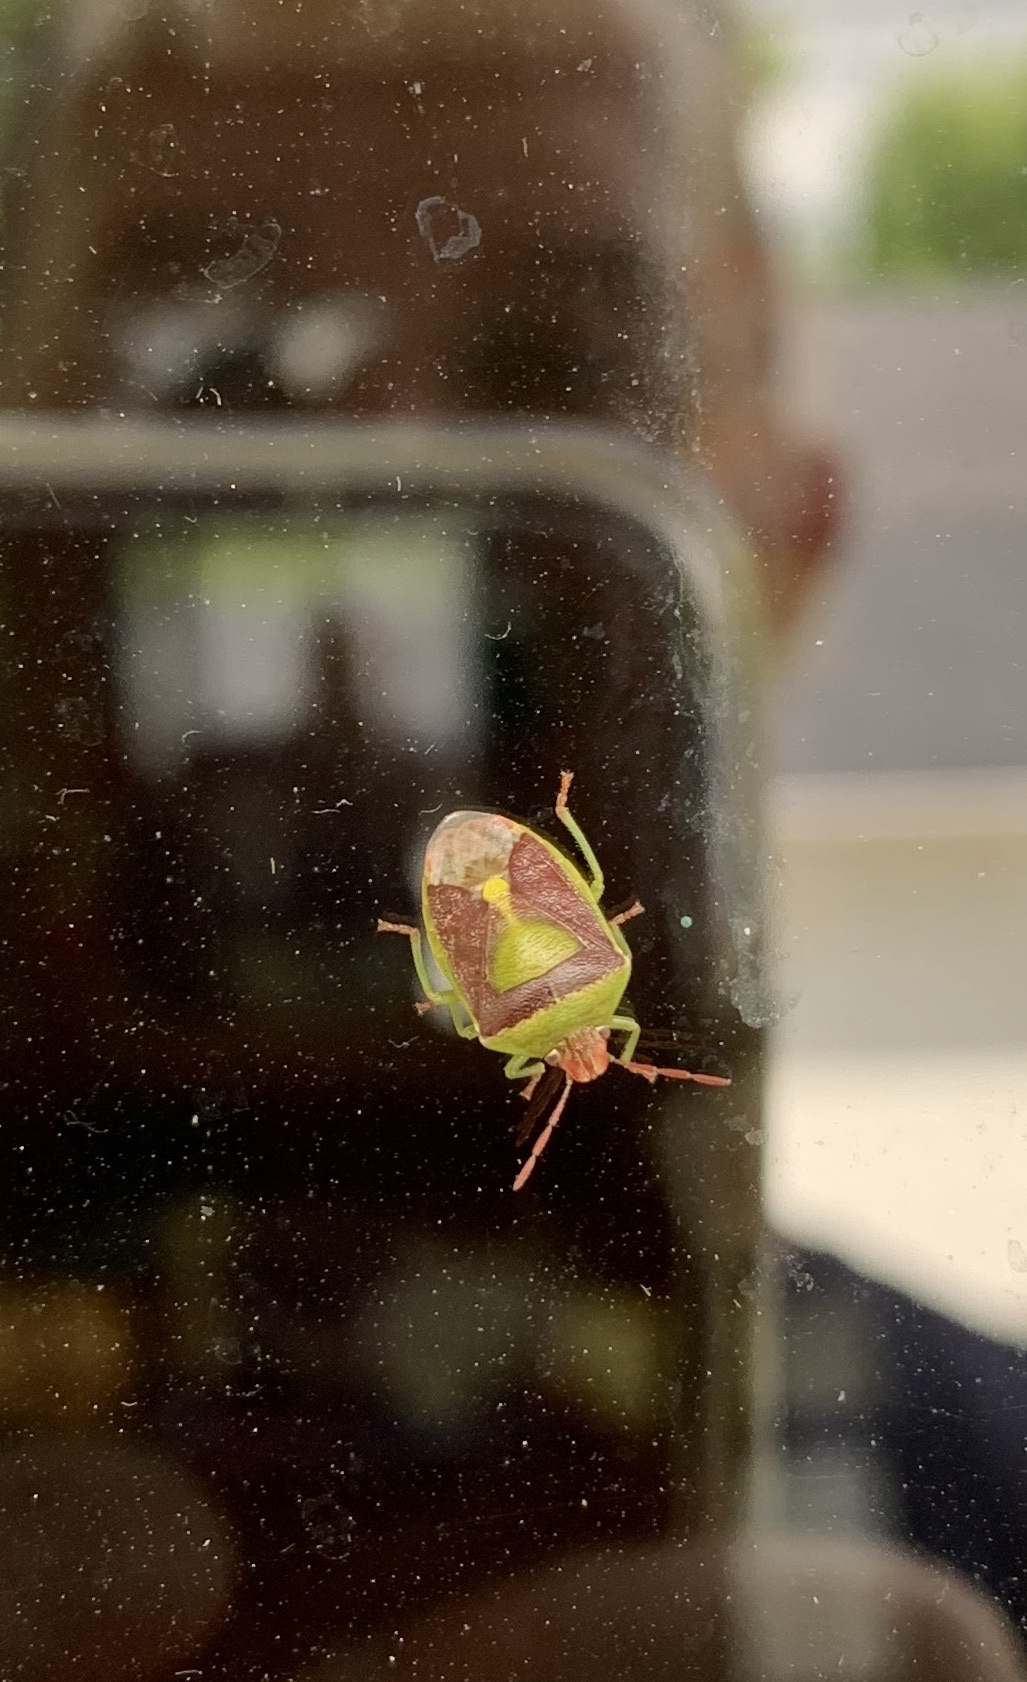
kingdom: Animalia
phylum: Arthropoda
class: Insecta
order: Hemiptera
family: Pentatomidae
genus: Banasa
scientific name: Banasa dimidiata
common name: Green burgundy stink bug
